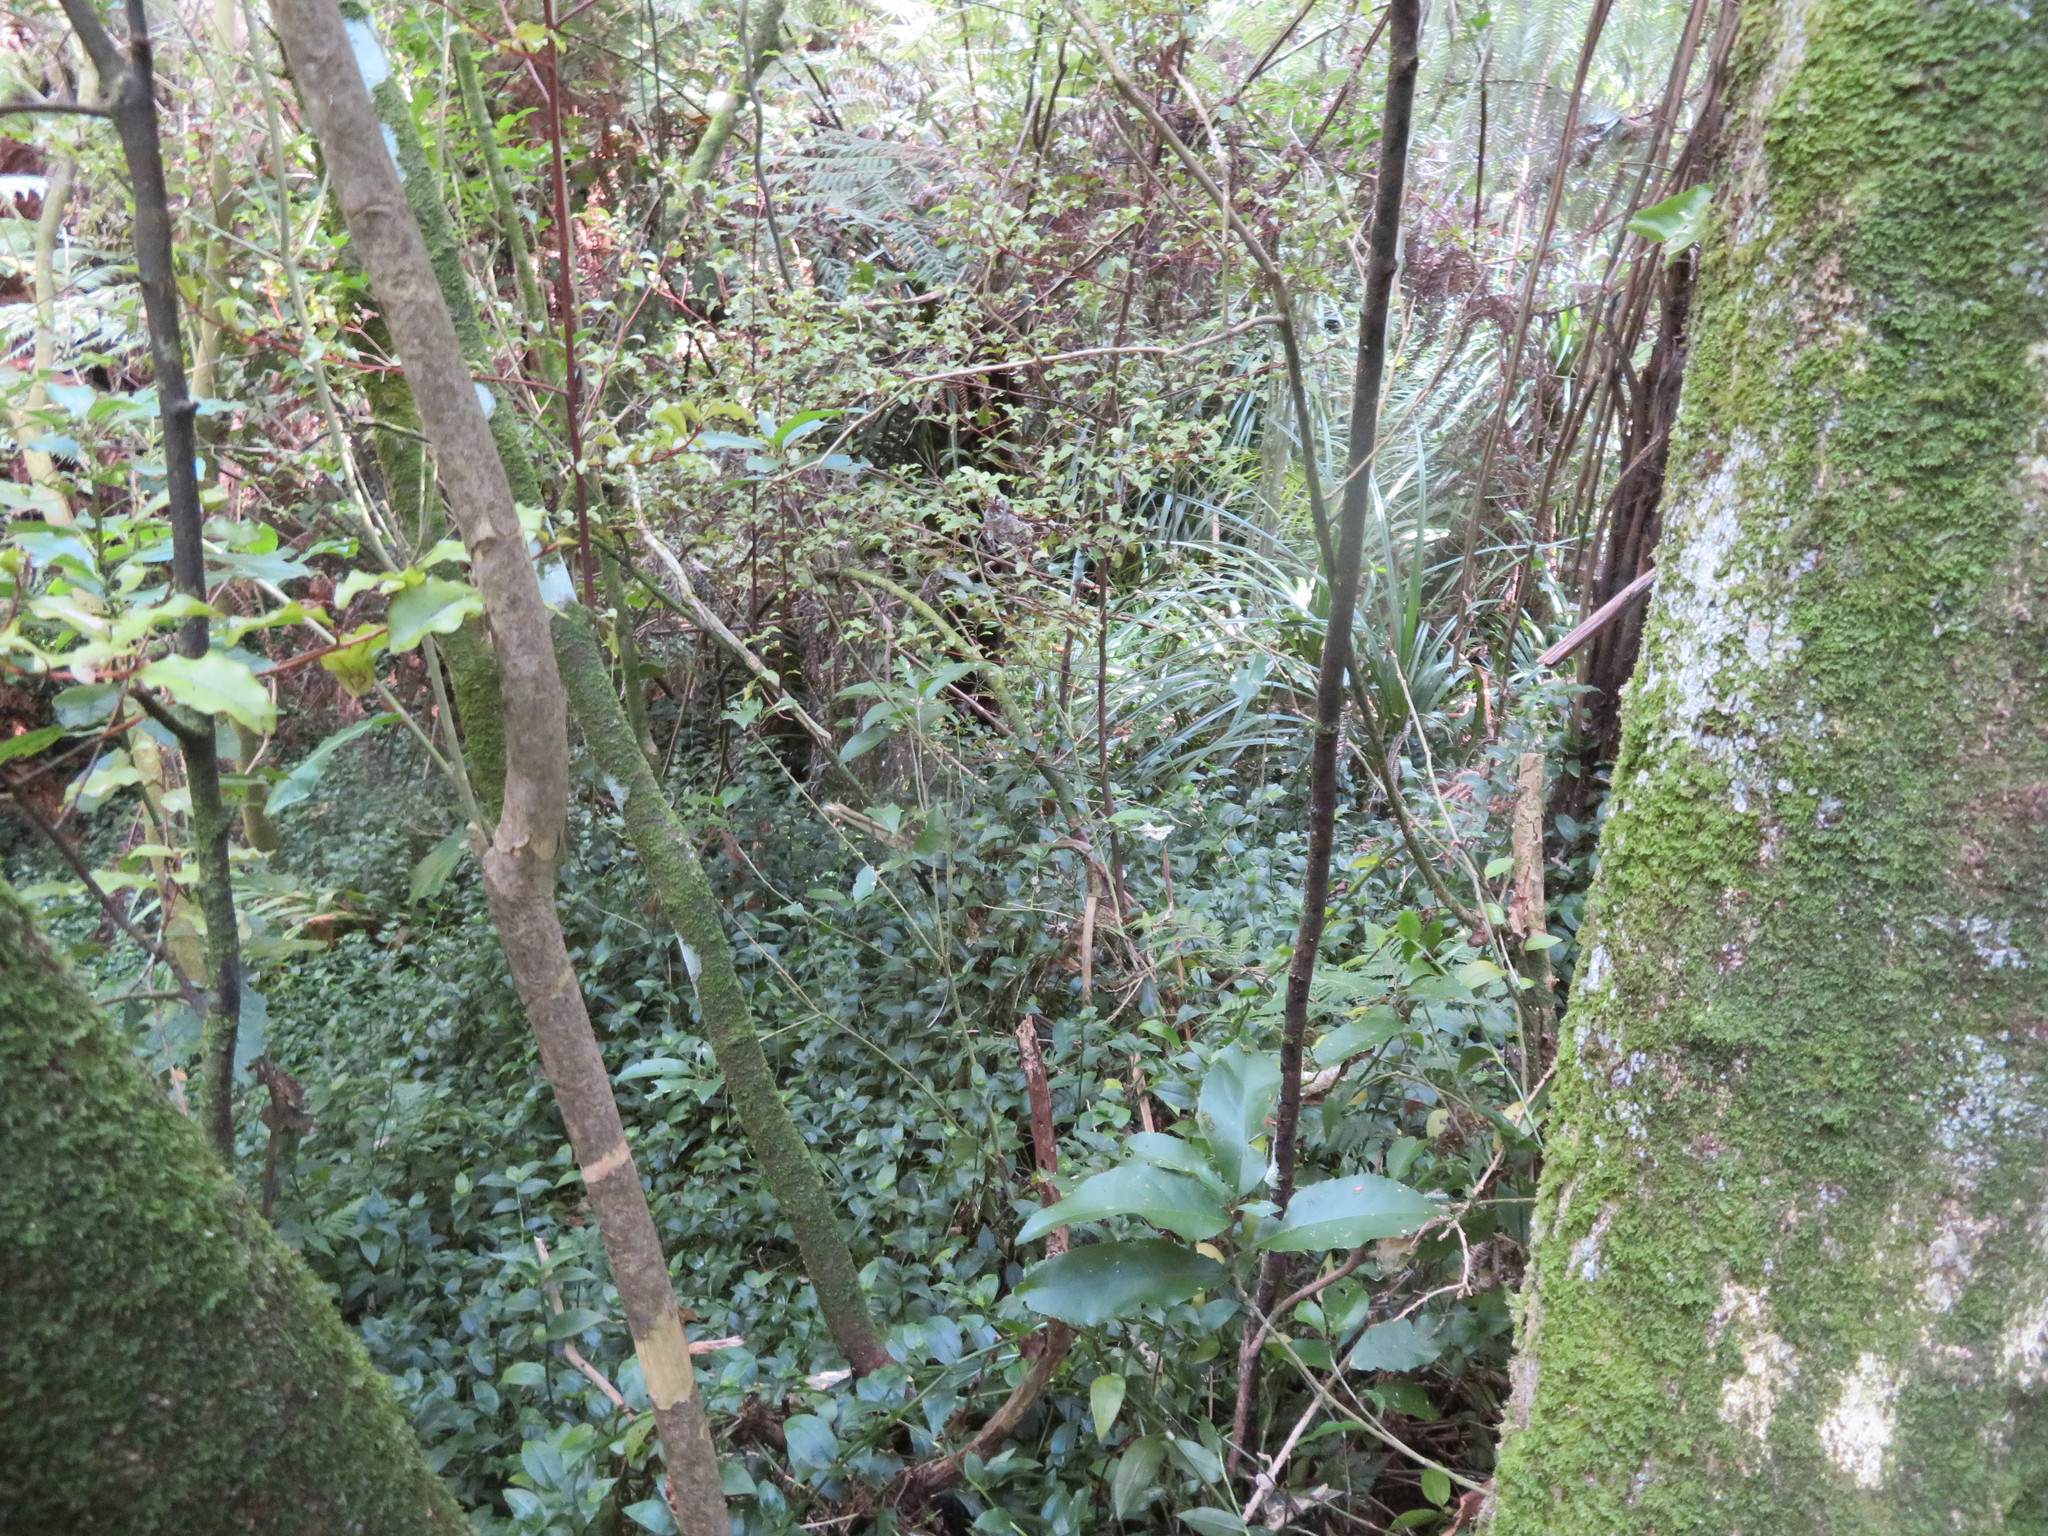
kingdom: Plantae
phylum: Tracheophyta
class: Magnoliopsida
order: Ericales
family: Primulaceae
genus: Myrsine
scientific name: Myrsine australis
